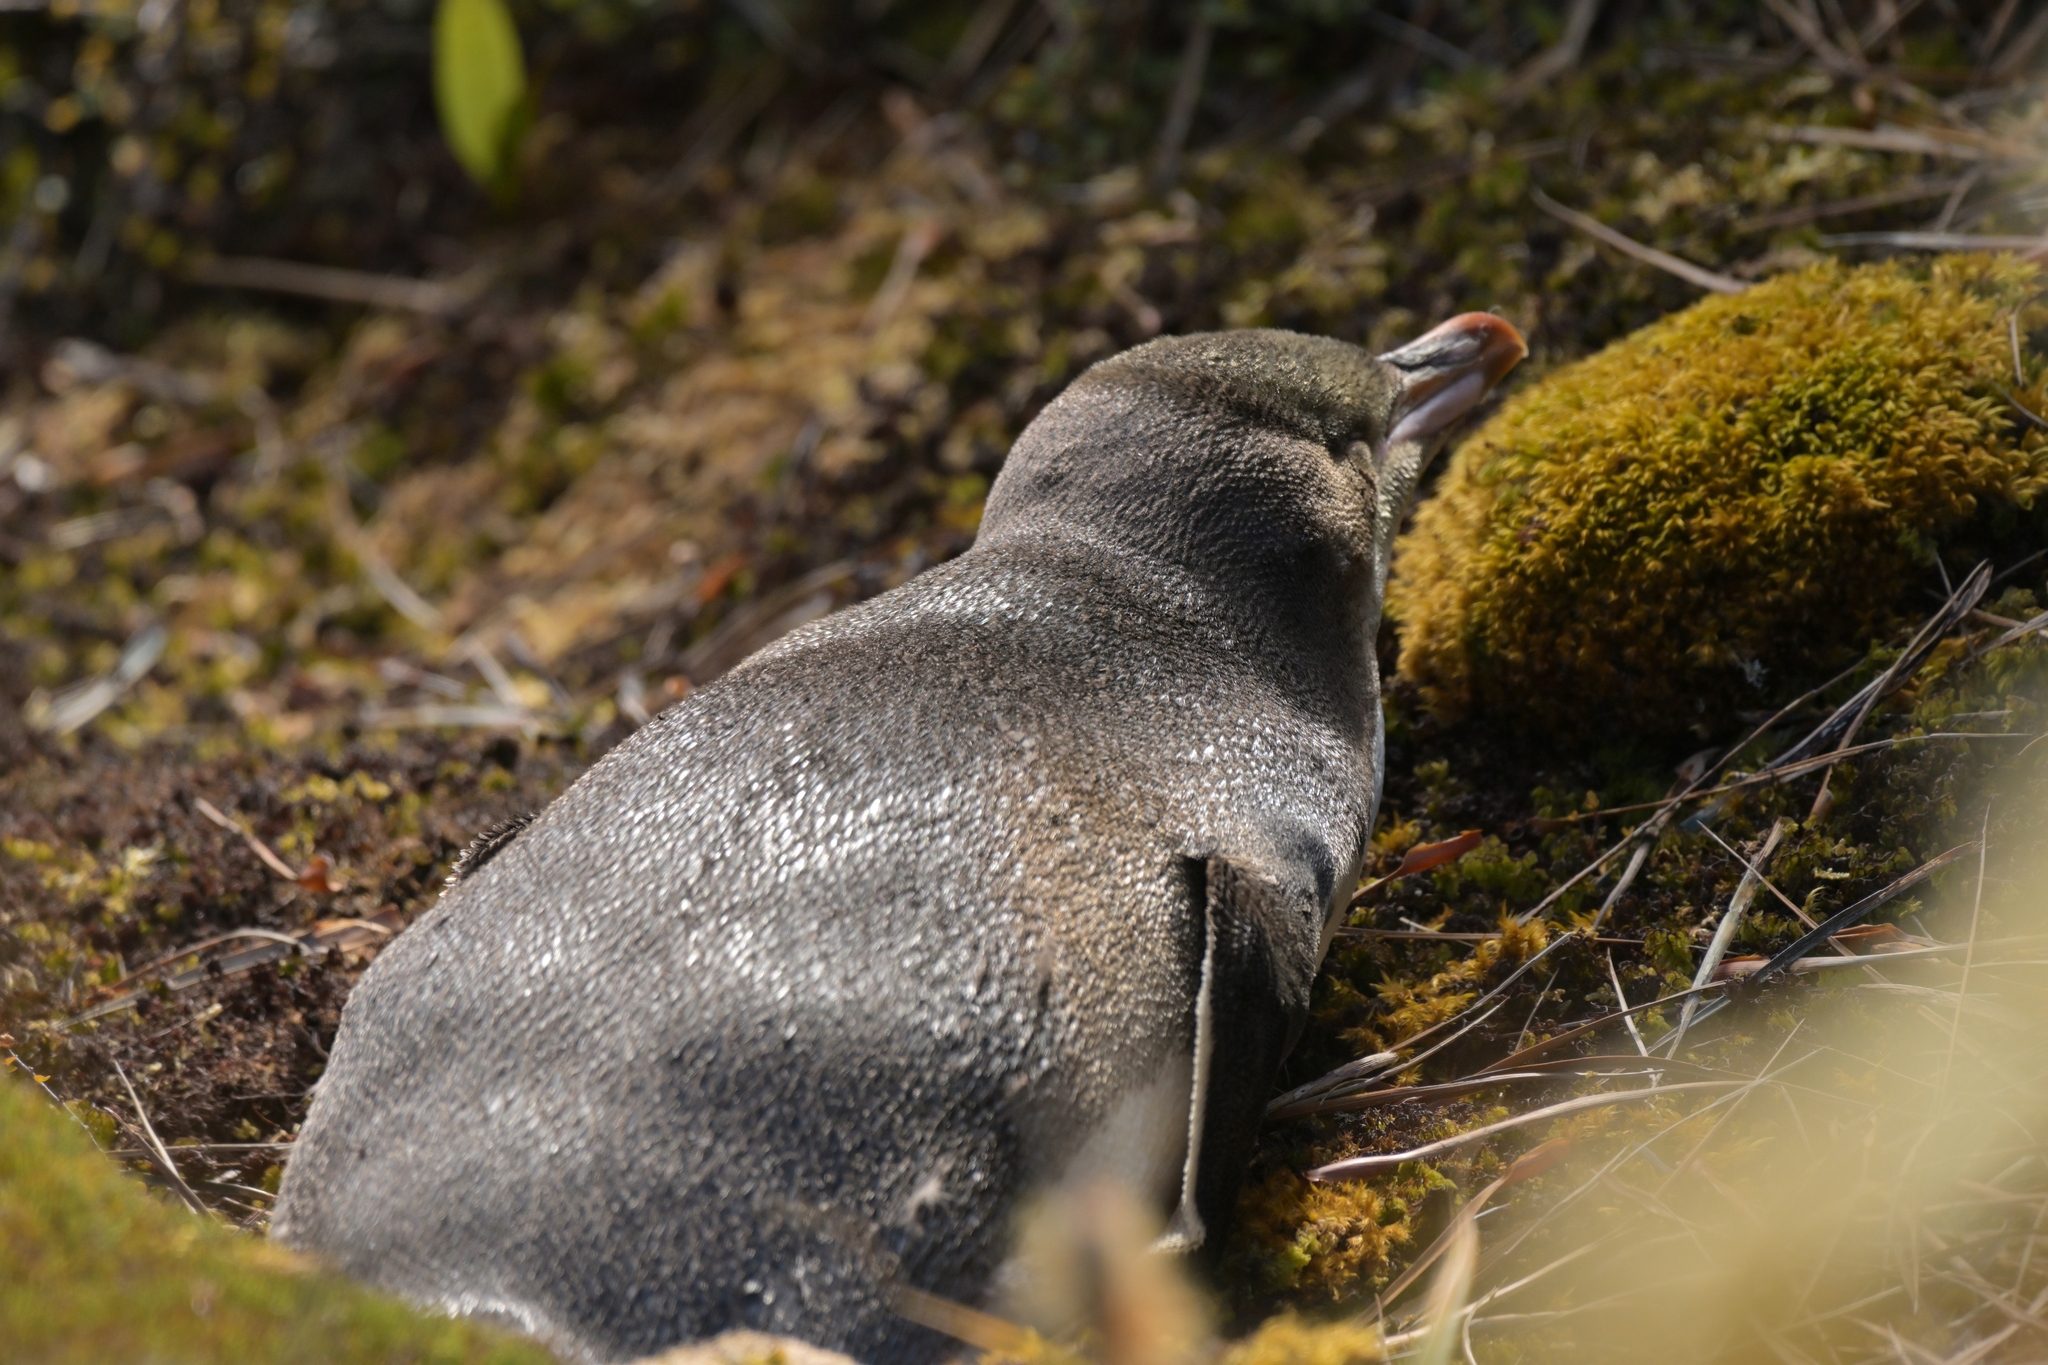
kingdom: Animalia
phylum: Chordata
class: Aves
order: Sphenisciformes
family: Spheniscidae
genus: Megadyptes
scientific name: Megadyptes antipodes
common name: Yellow-eyed penguin
